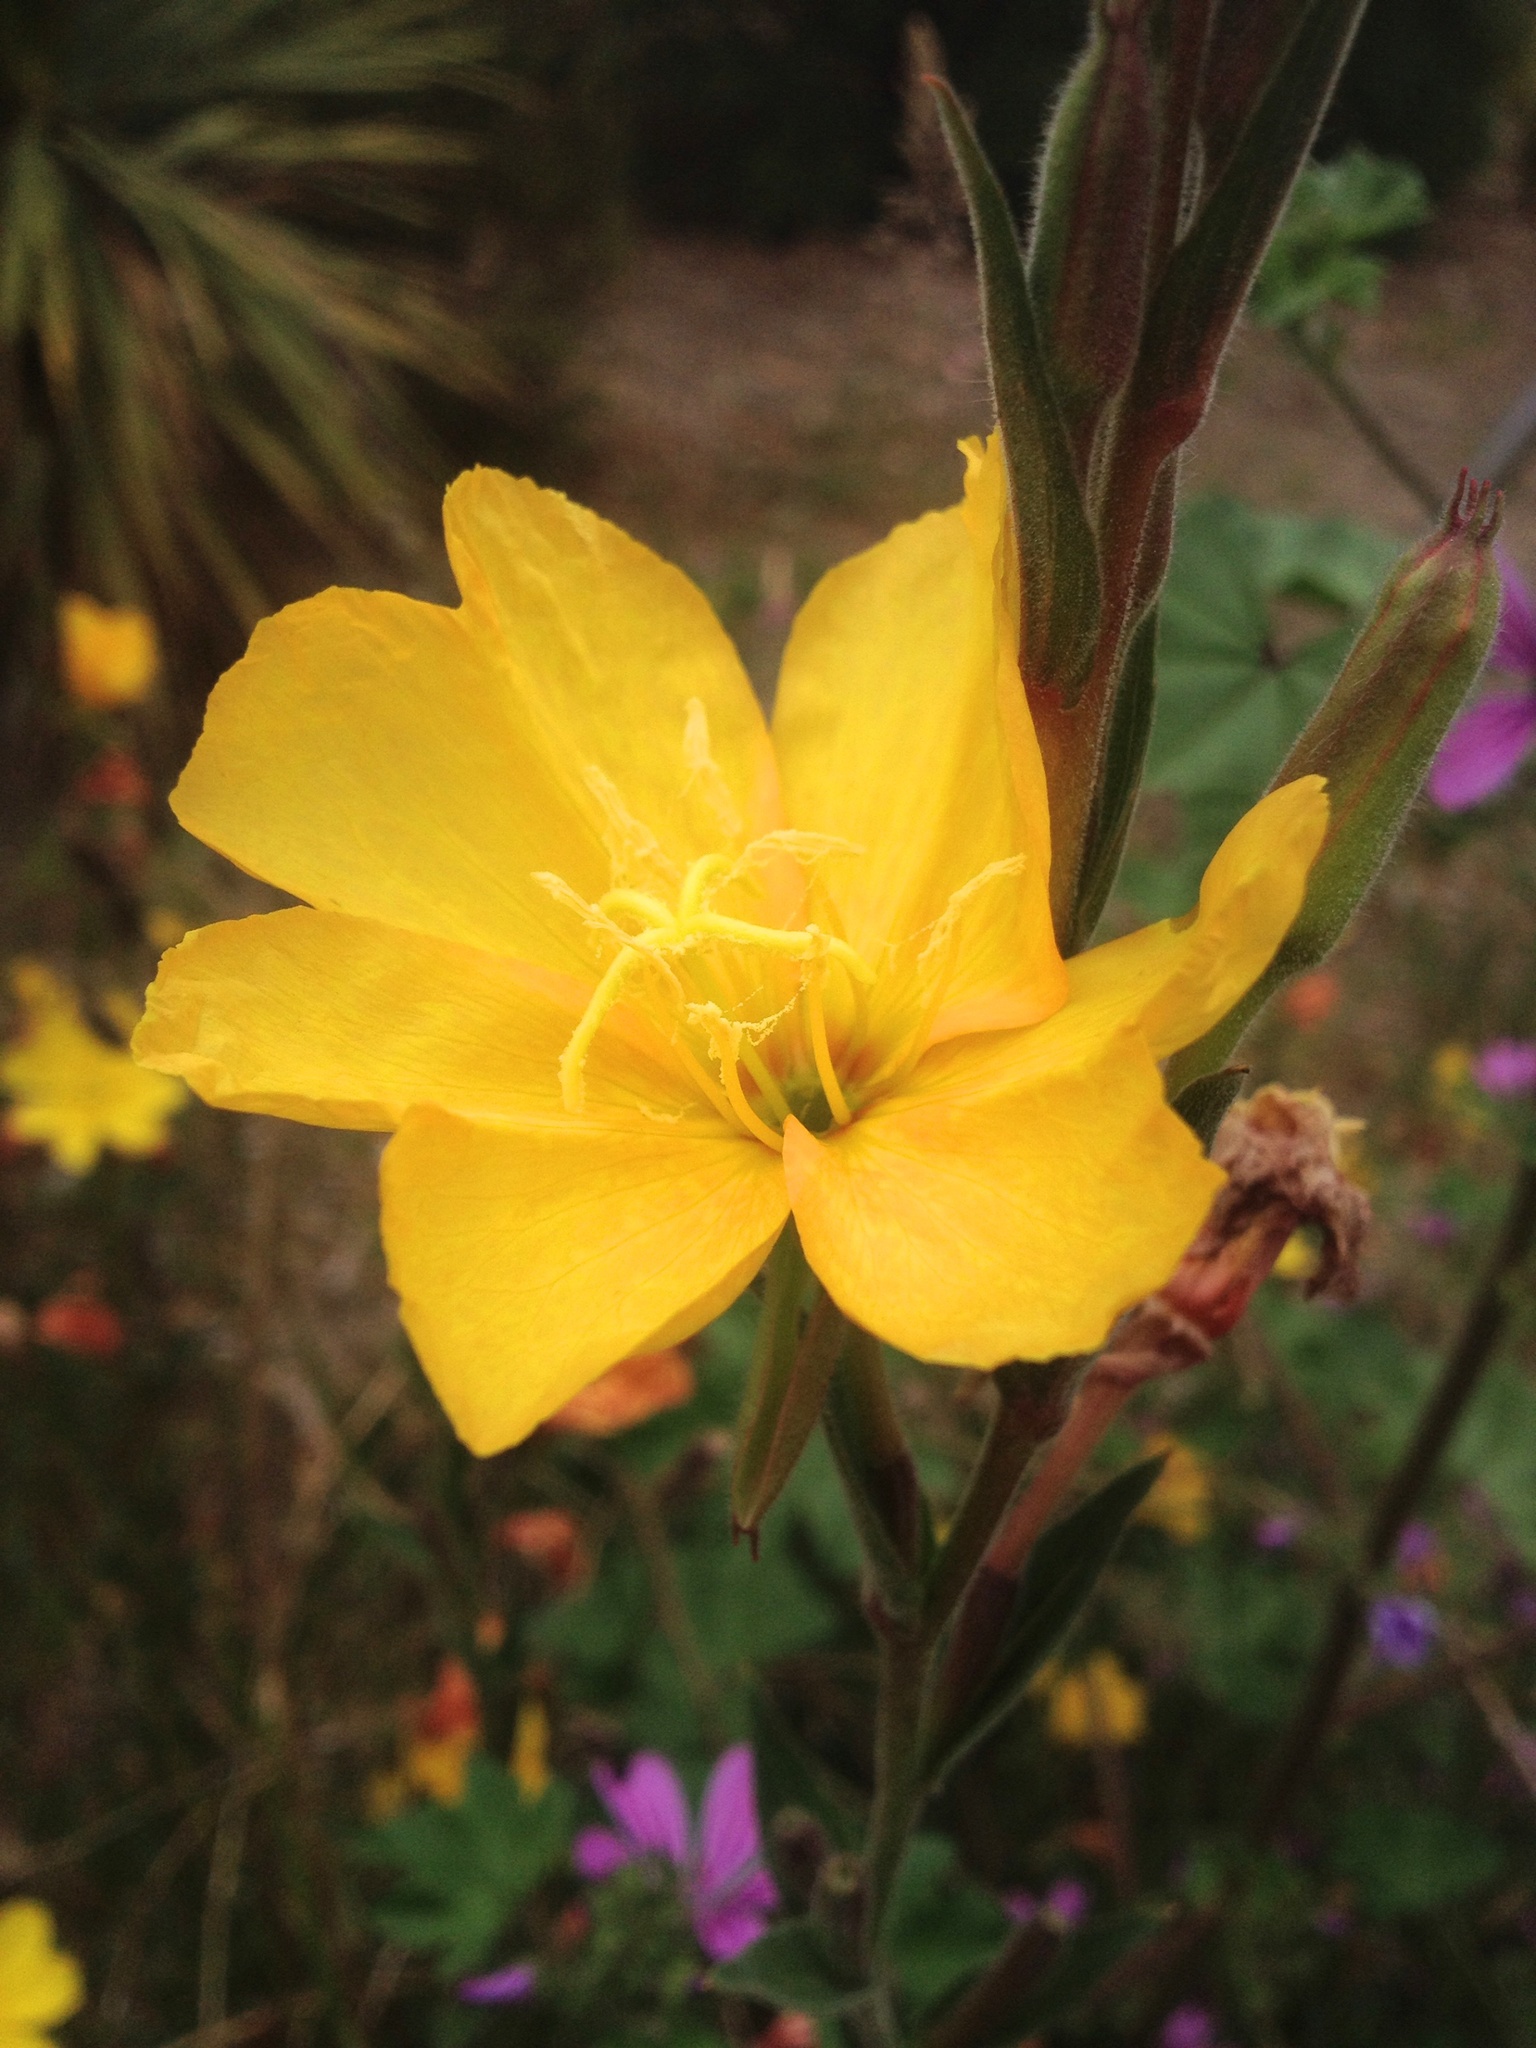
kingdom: Plantae
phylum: Tracheophyta
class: Magnoliopsida
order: Myrtales
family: Onagraceae
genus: Oenothera
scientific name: Oenothera stricta
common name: Fragrant evening-primrose
